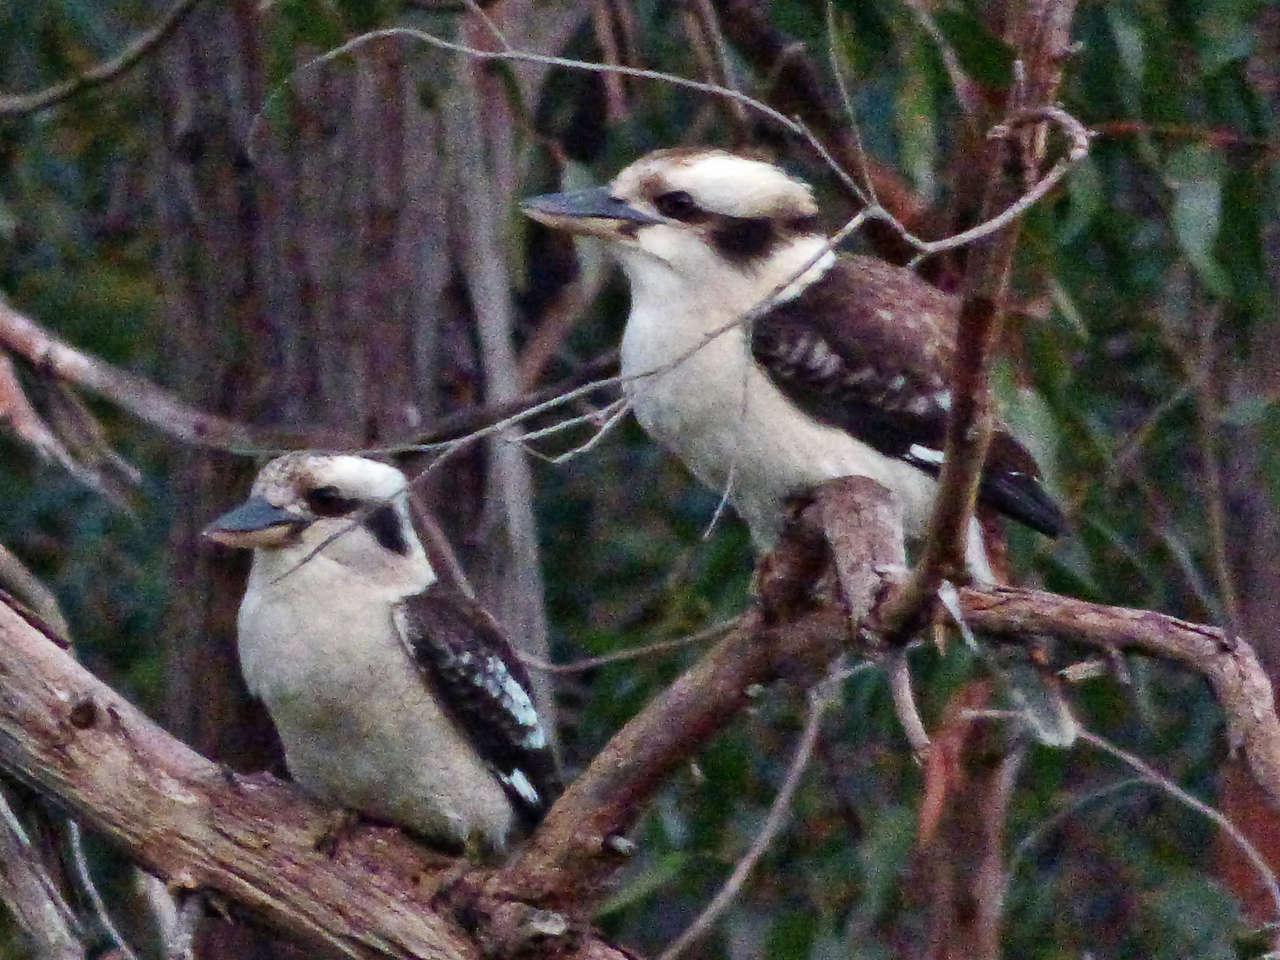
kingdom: Animalia
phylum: Chordata
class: Aves
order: Coraciiformes
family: Alcedinidae
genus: Dacelo
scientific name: Dacelo novaeguineae
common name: Laughing kookaburra
